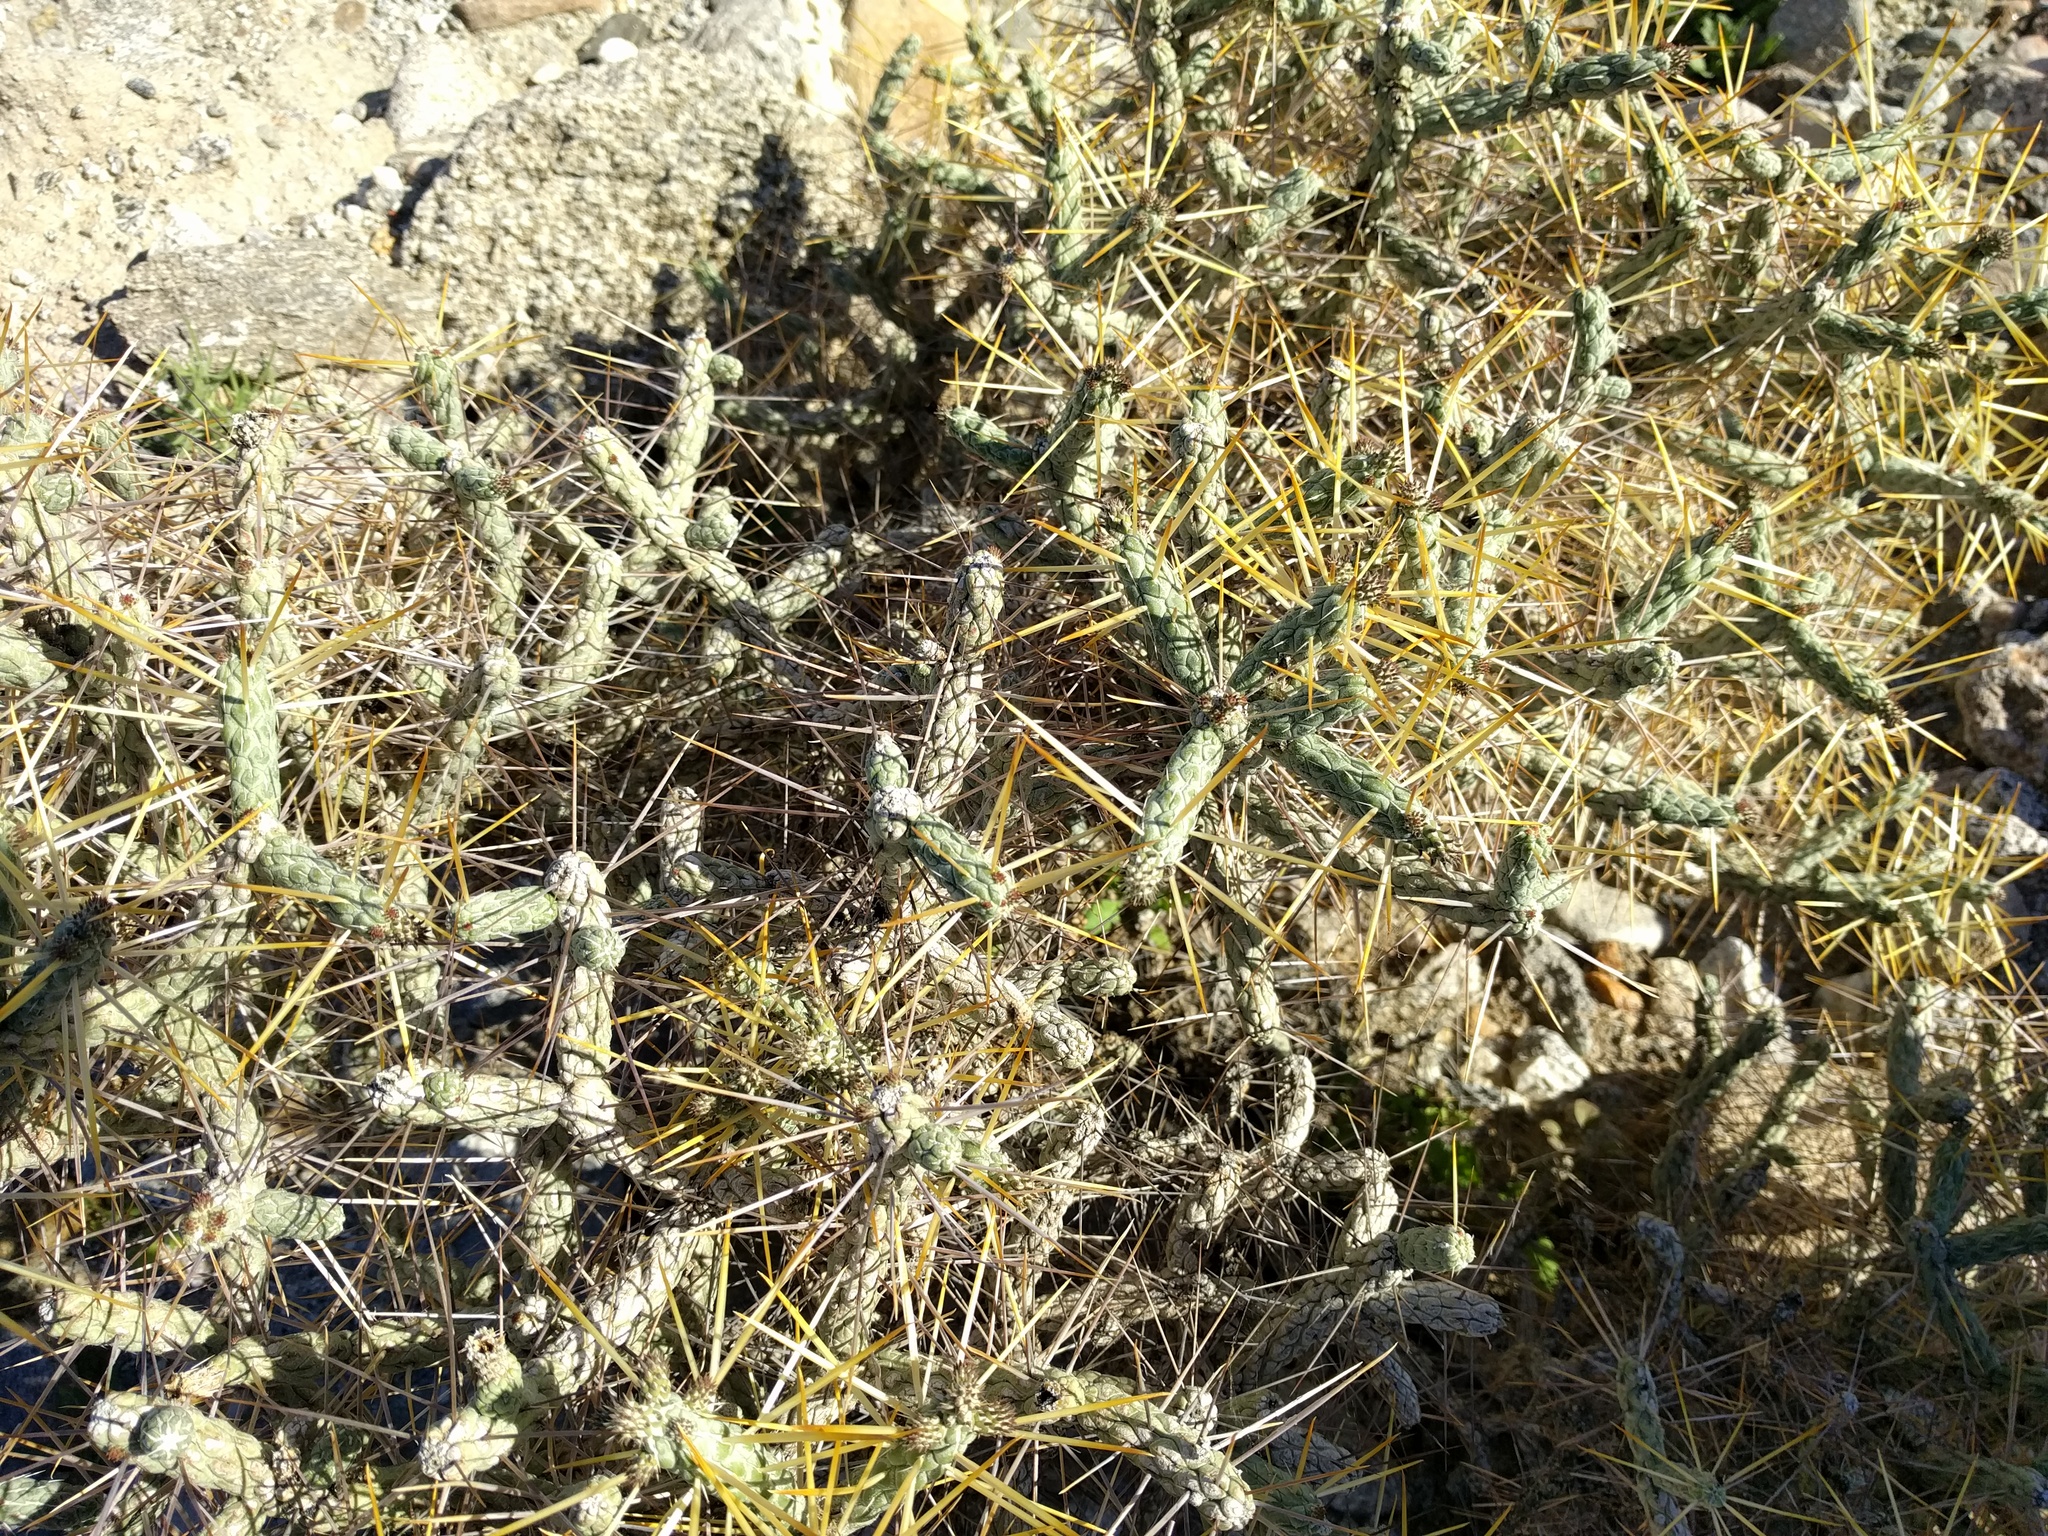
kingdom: Plantae
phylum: Tracheophyta
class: Magnoliopsida
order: Caryophyllales
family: Cactaceae
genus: Cylindropuntia
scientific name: Cylindropuntia ramosissima
